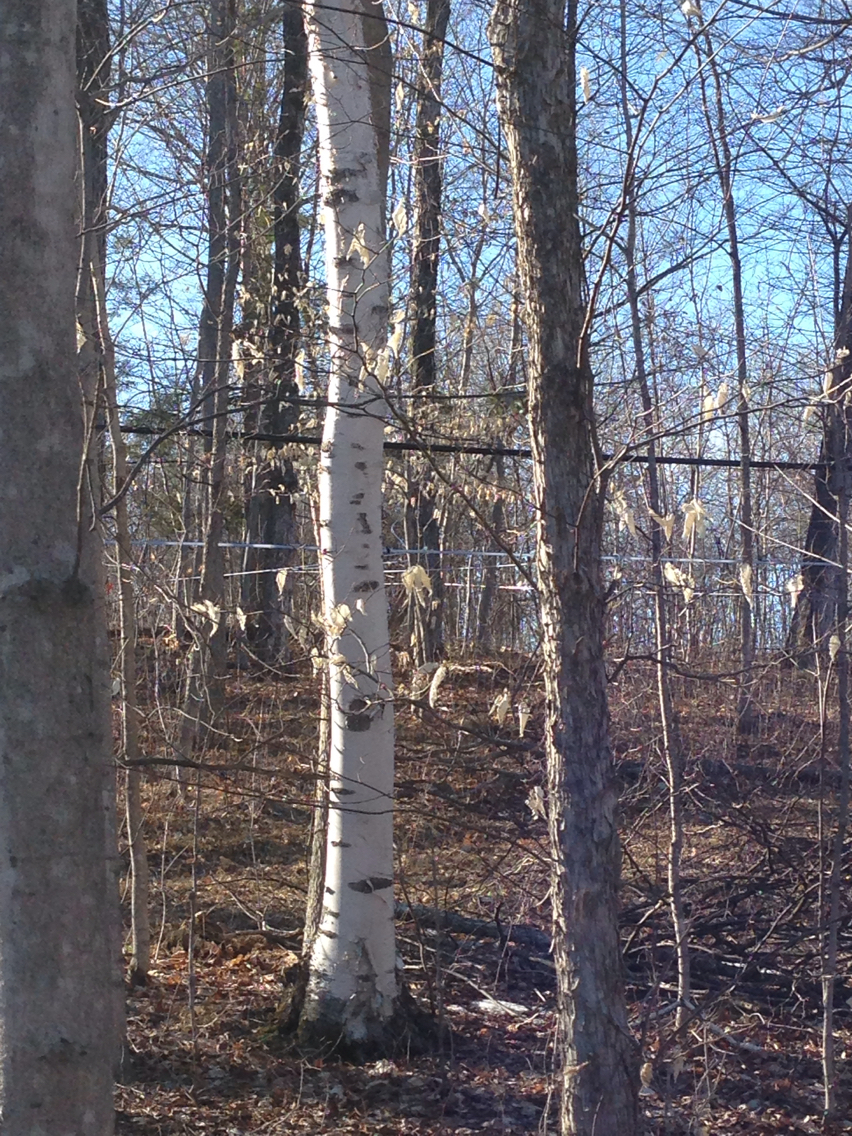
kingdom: Plantae
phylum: Tracheophyta
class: Magnoliopsida
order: Fagales
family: Betulaceae
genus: Betula
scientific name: Betula papyrifera
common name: Paper birch
